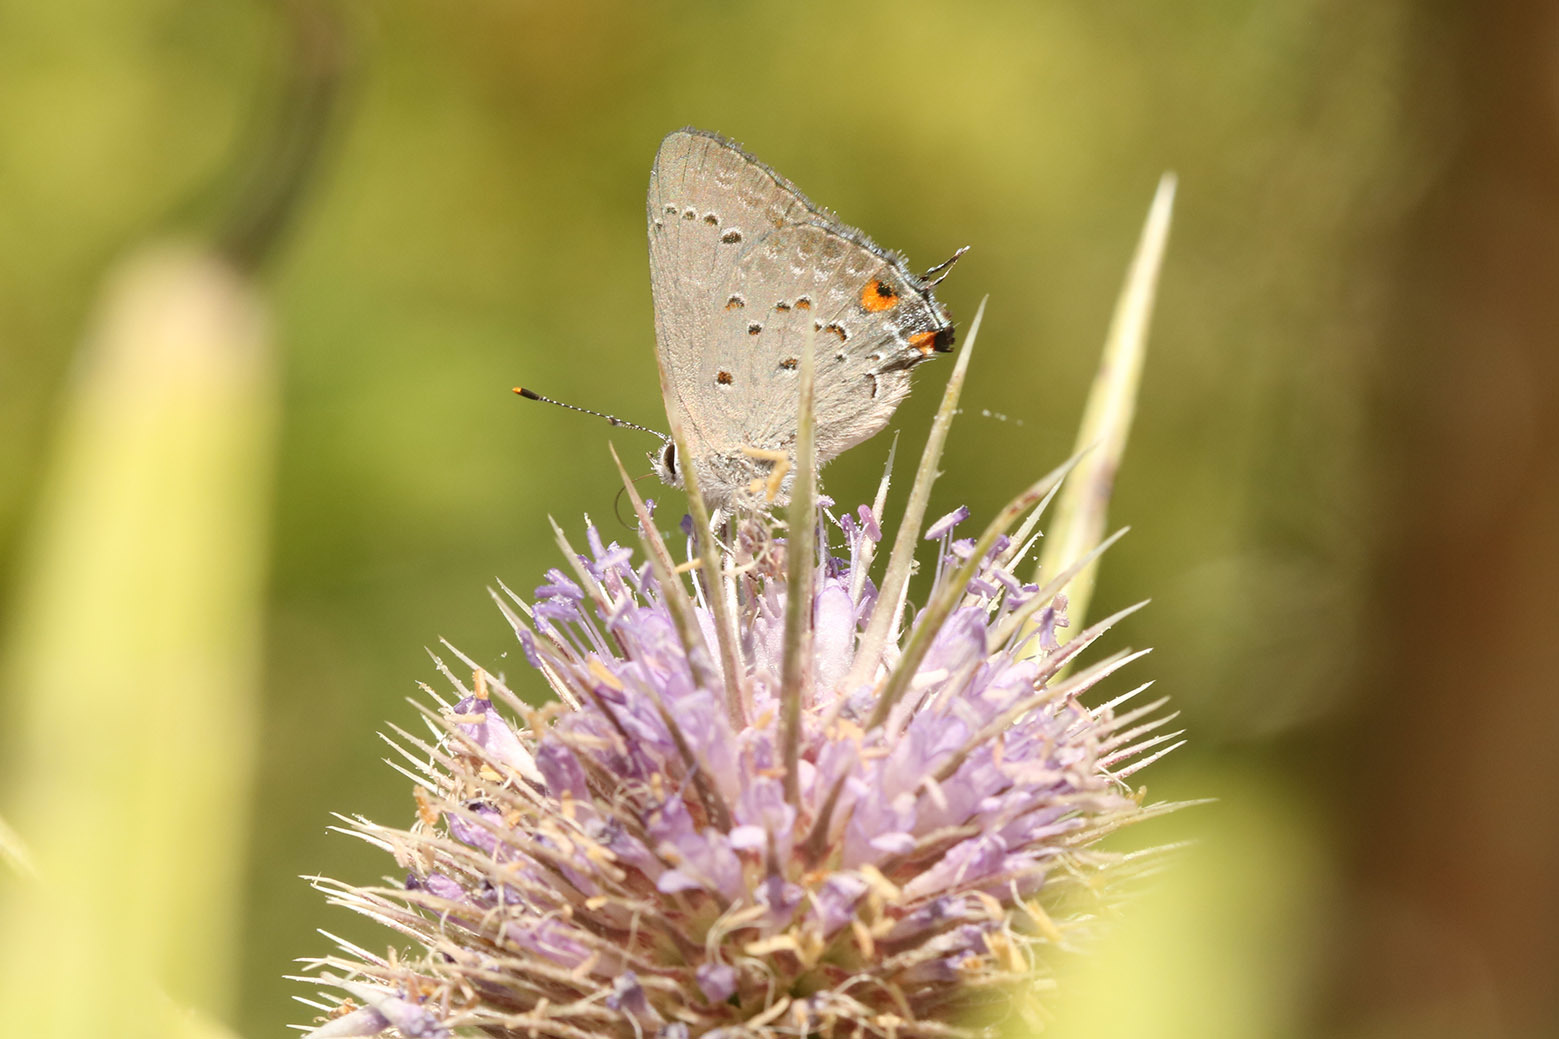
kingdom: Animalia
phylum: Arthropoda
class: Insecta
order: Lepidoptera
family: Lycaenidae
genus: Strymon
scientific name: Strymon eurytulus
